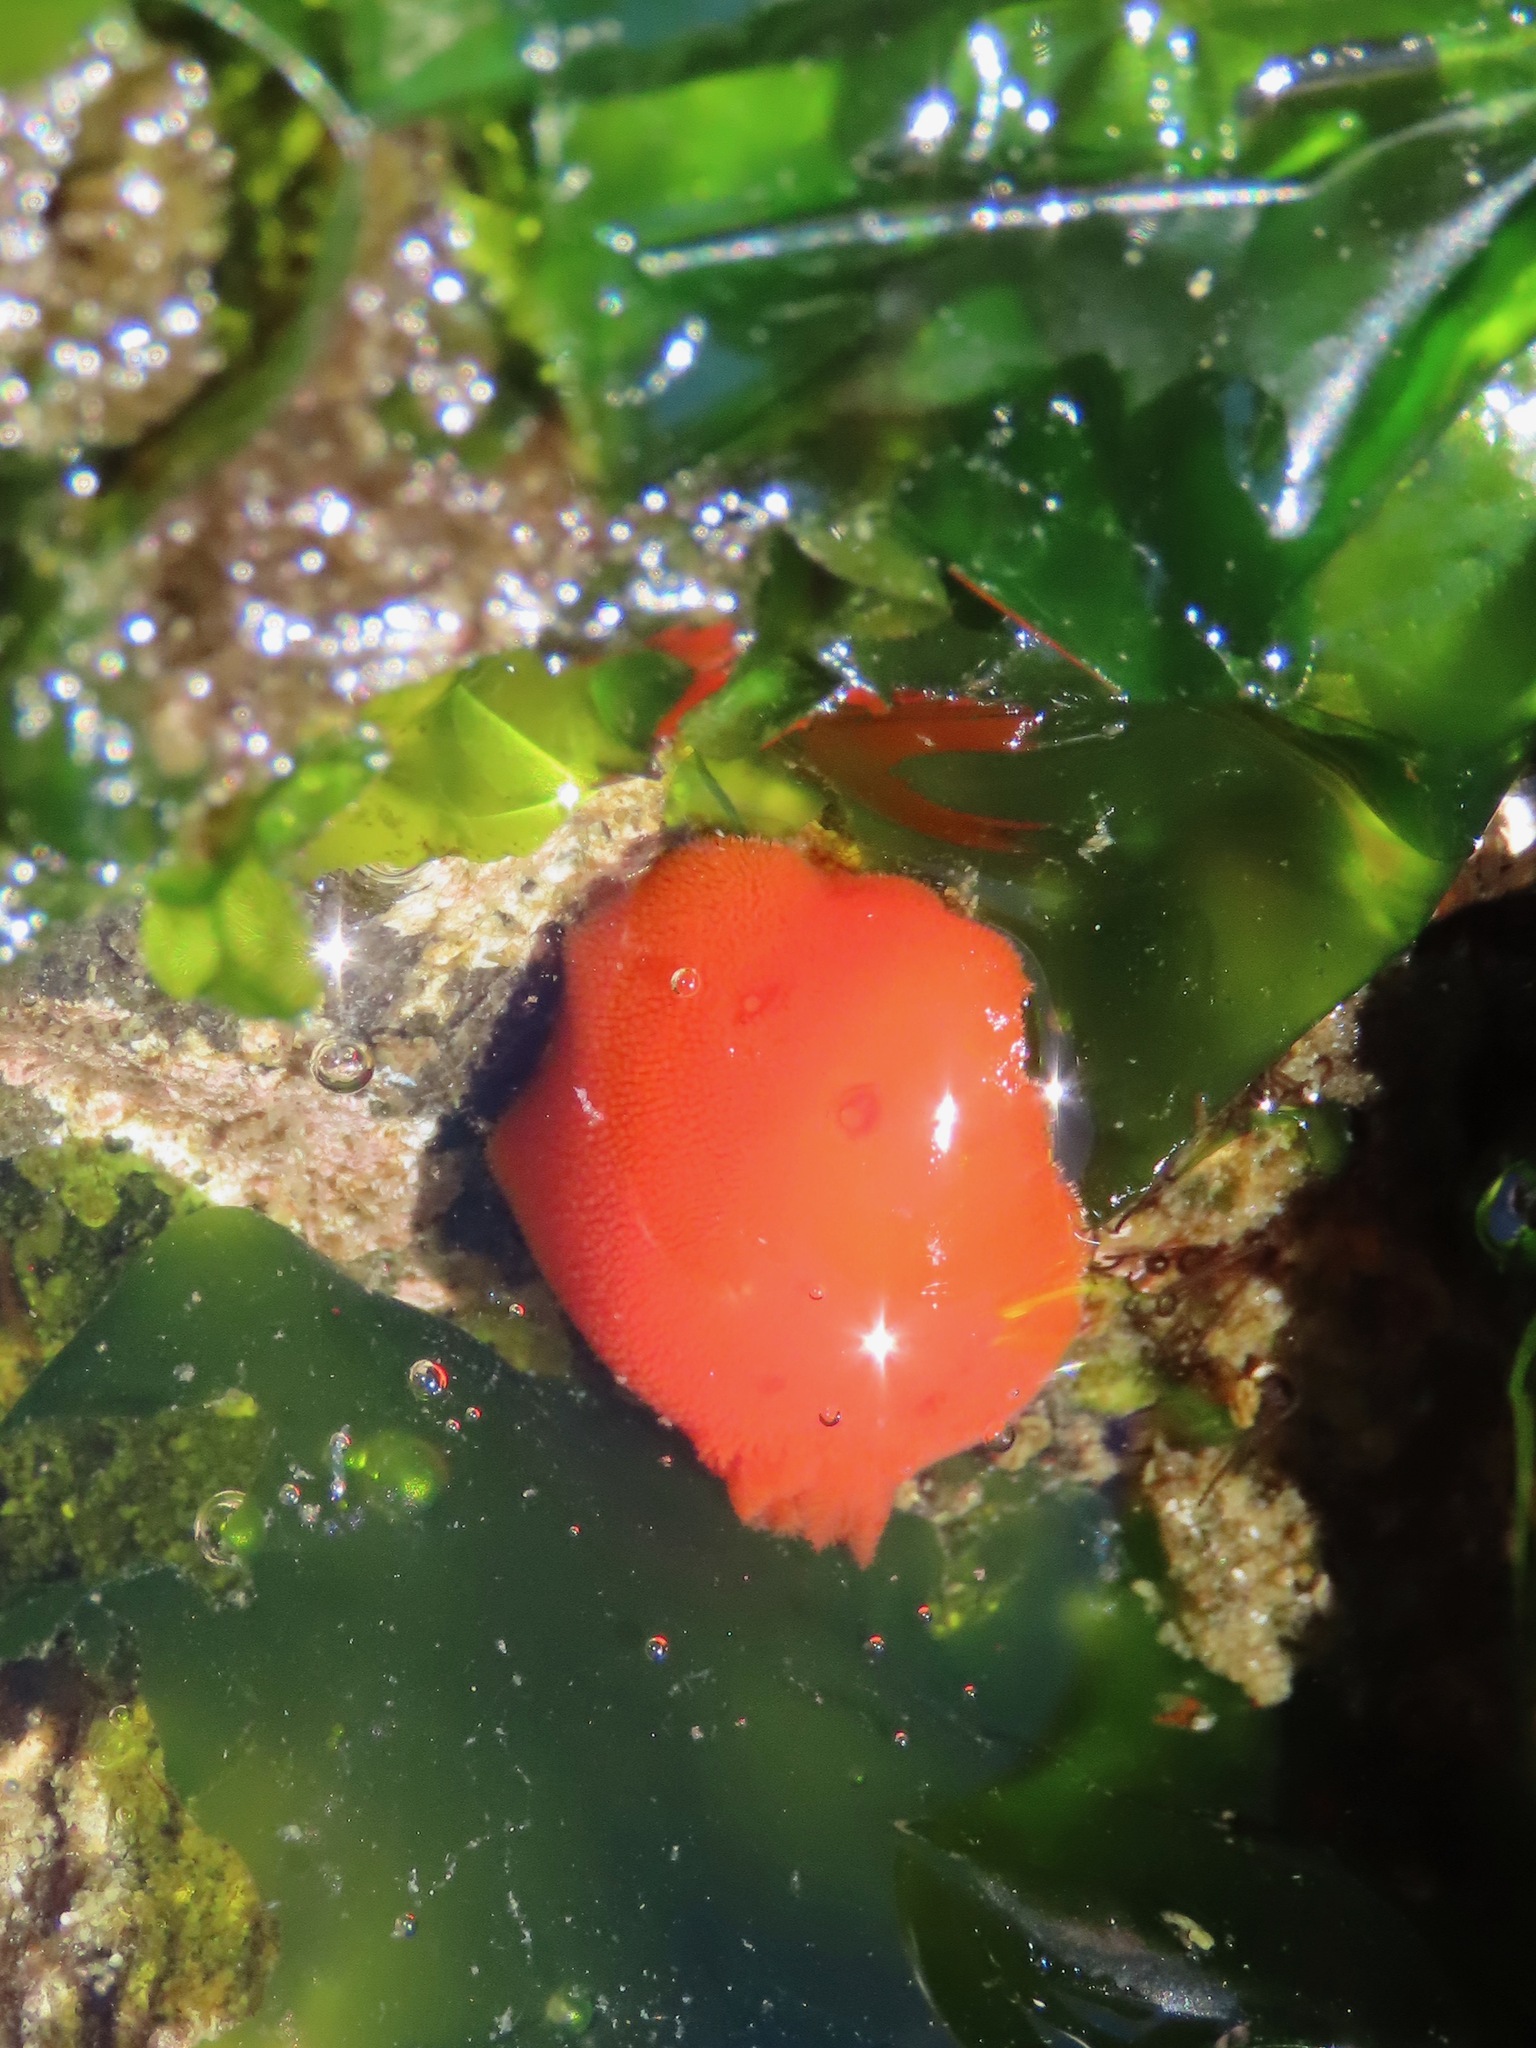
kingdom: Animalia
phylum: Mollusca
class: Gastropoda
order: Nudibranchia
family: Discodorididae
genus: Rostanga
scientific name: Rostanga pulchra
